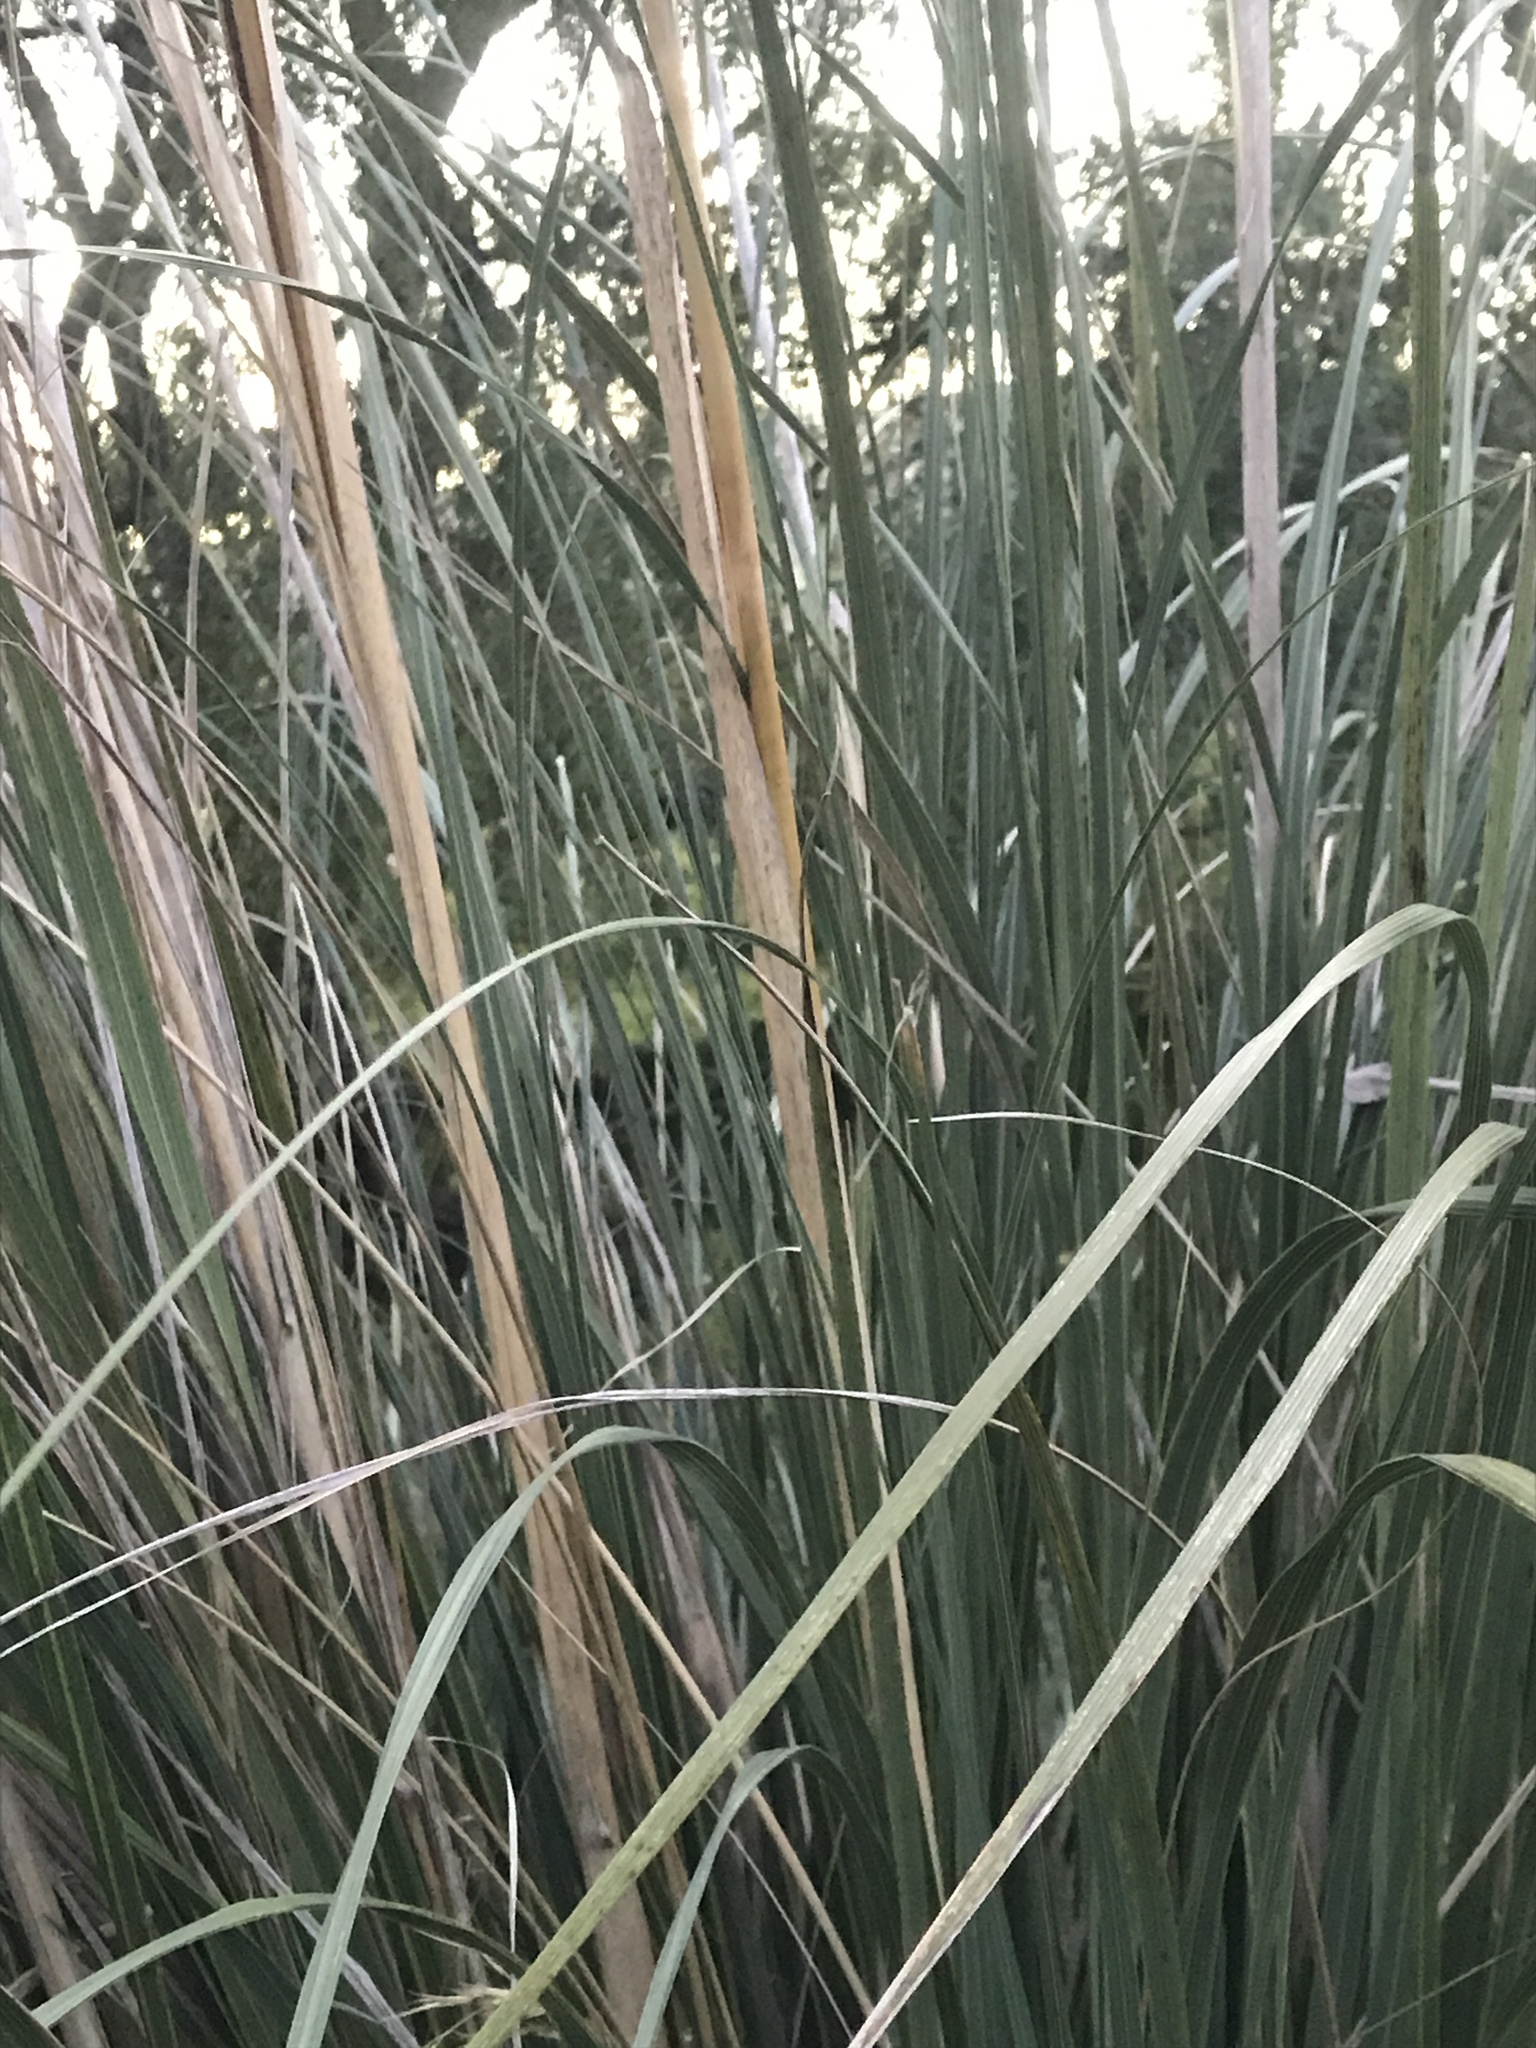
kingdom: Plantae
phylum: Tracheophyta
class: Liliopsida
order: Poales
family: Poaceae
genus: Cortaderia
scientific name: Cortaderia selloana
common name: Uruguayan pampas grass
